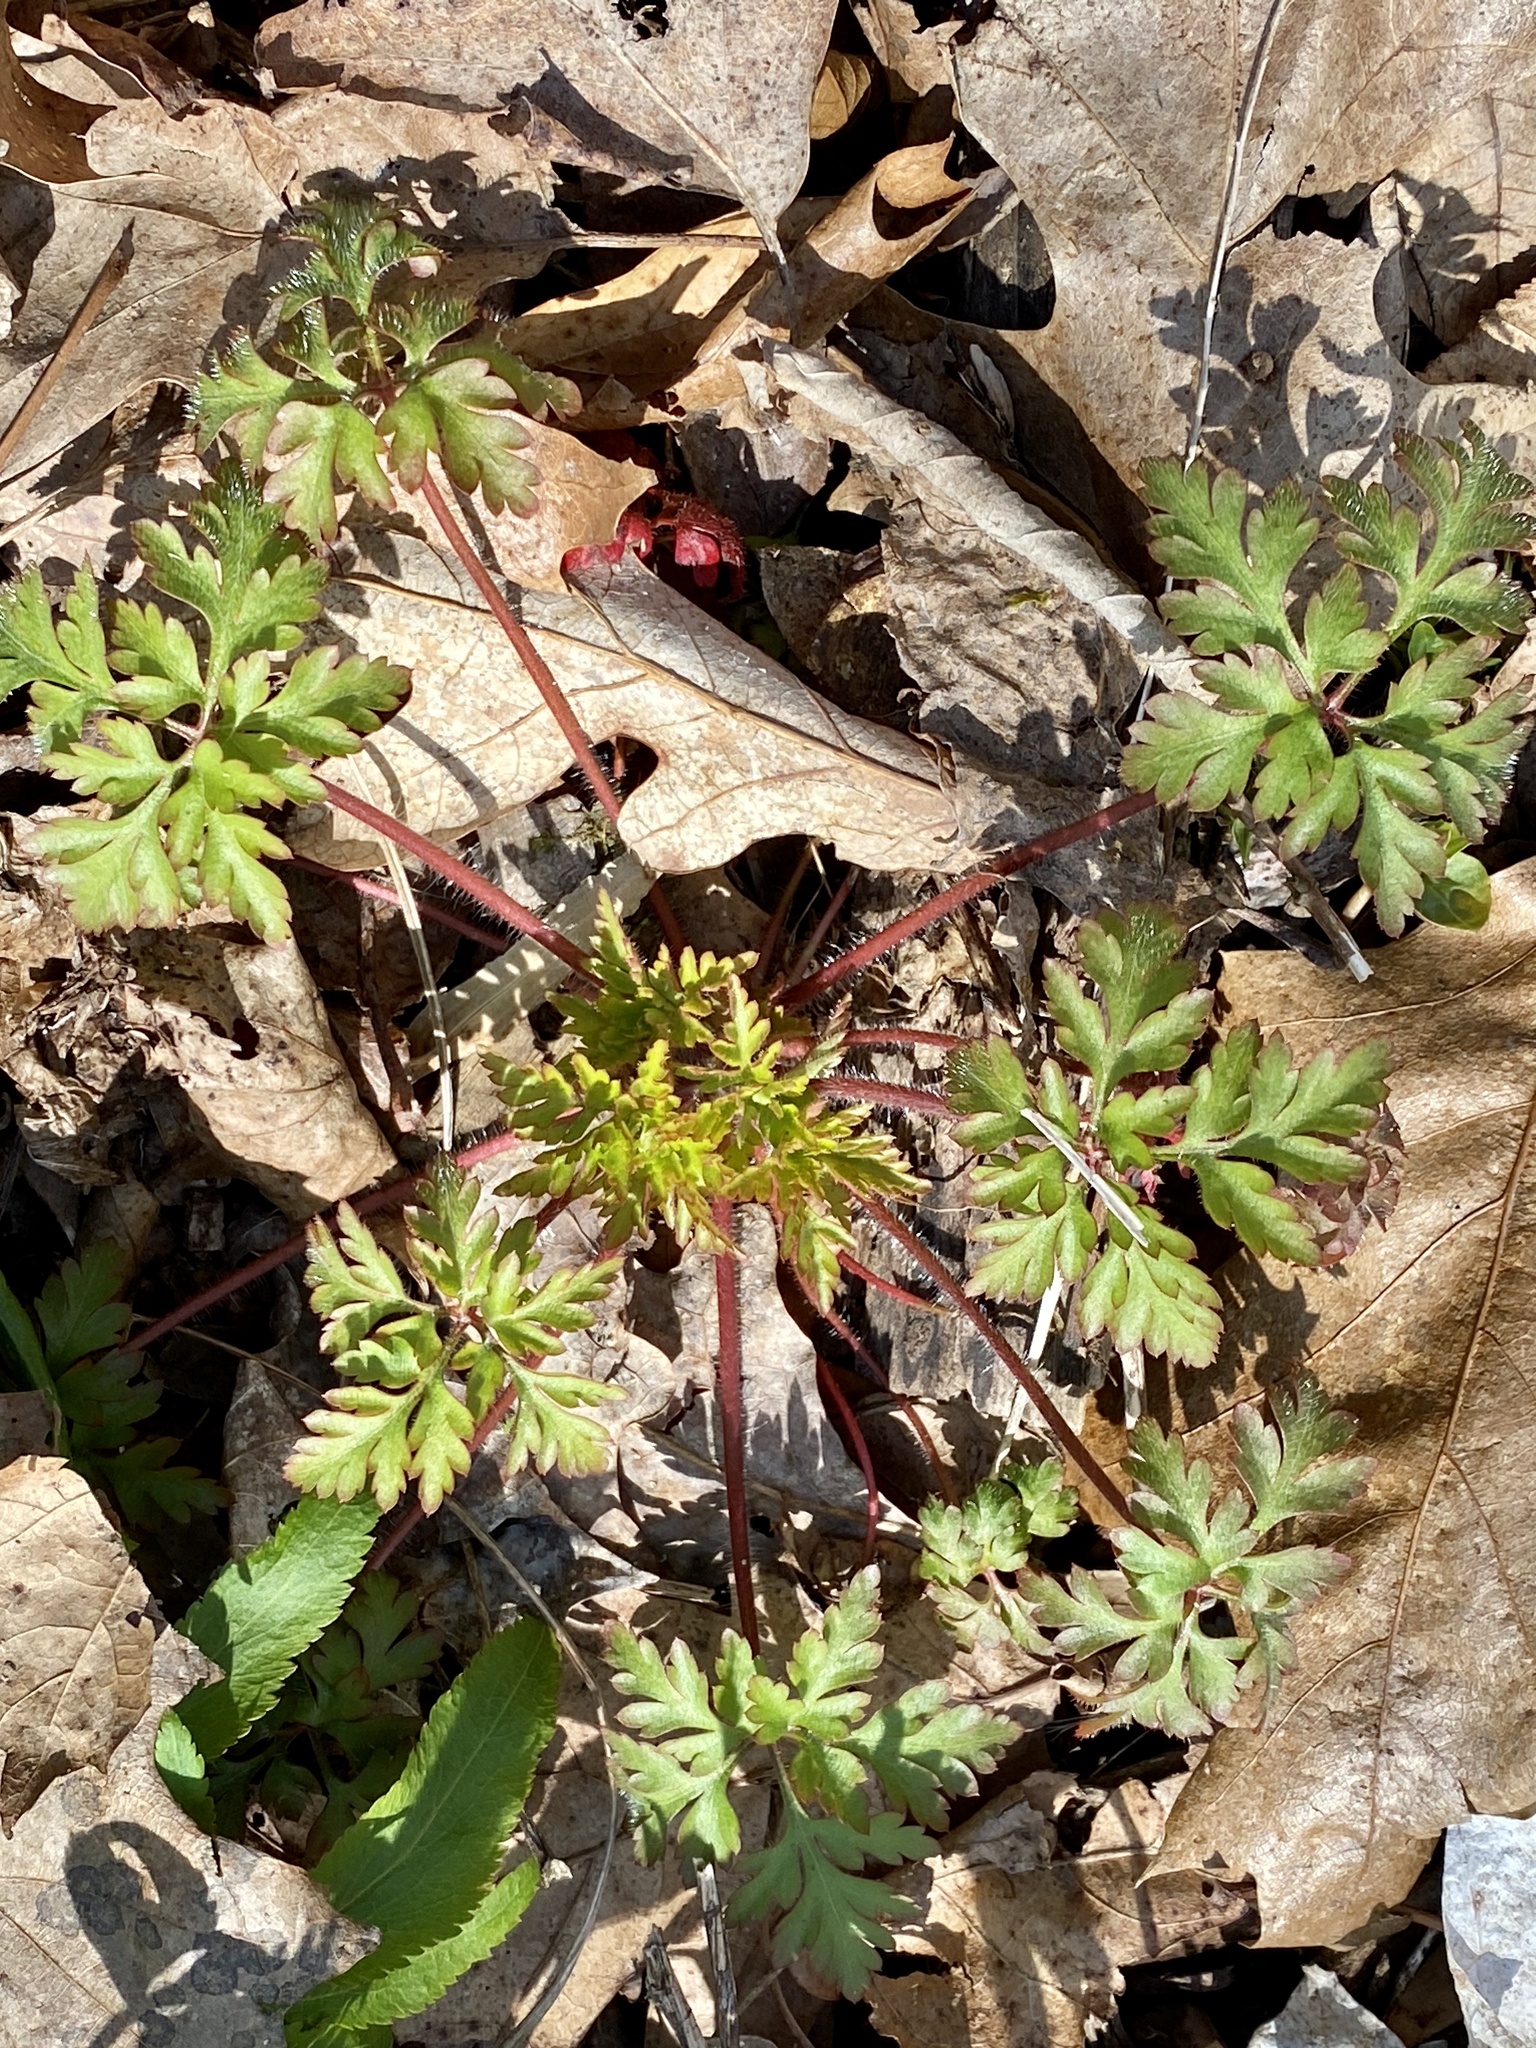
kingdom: Plantae
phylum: Tracheophyta
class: Magnoliopsida
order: Geraniales
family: Geraniaceae
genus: Geranium
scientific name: Geranium robertianum
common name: Herb-robert
